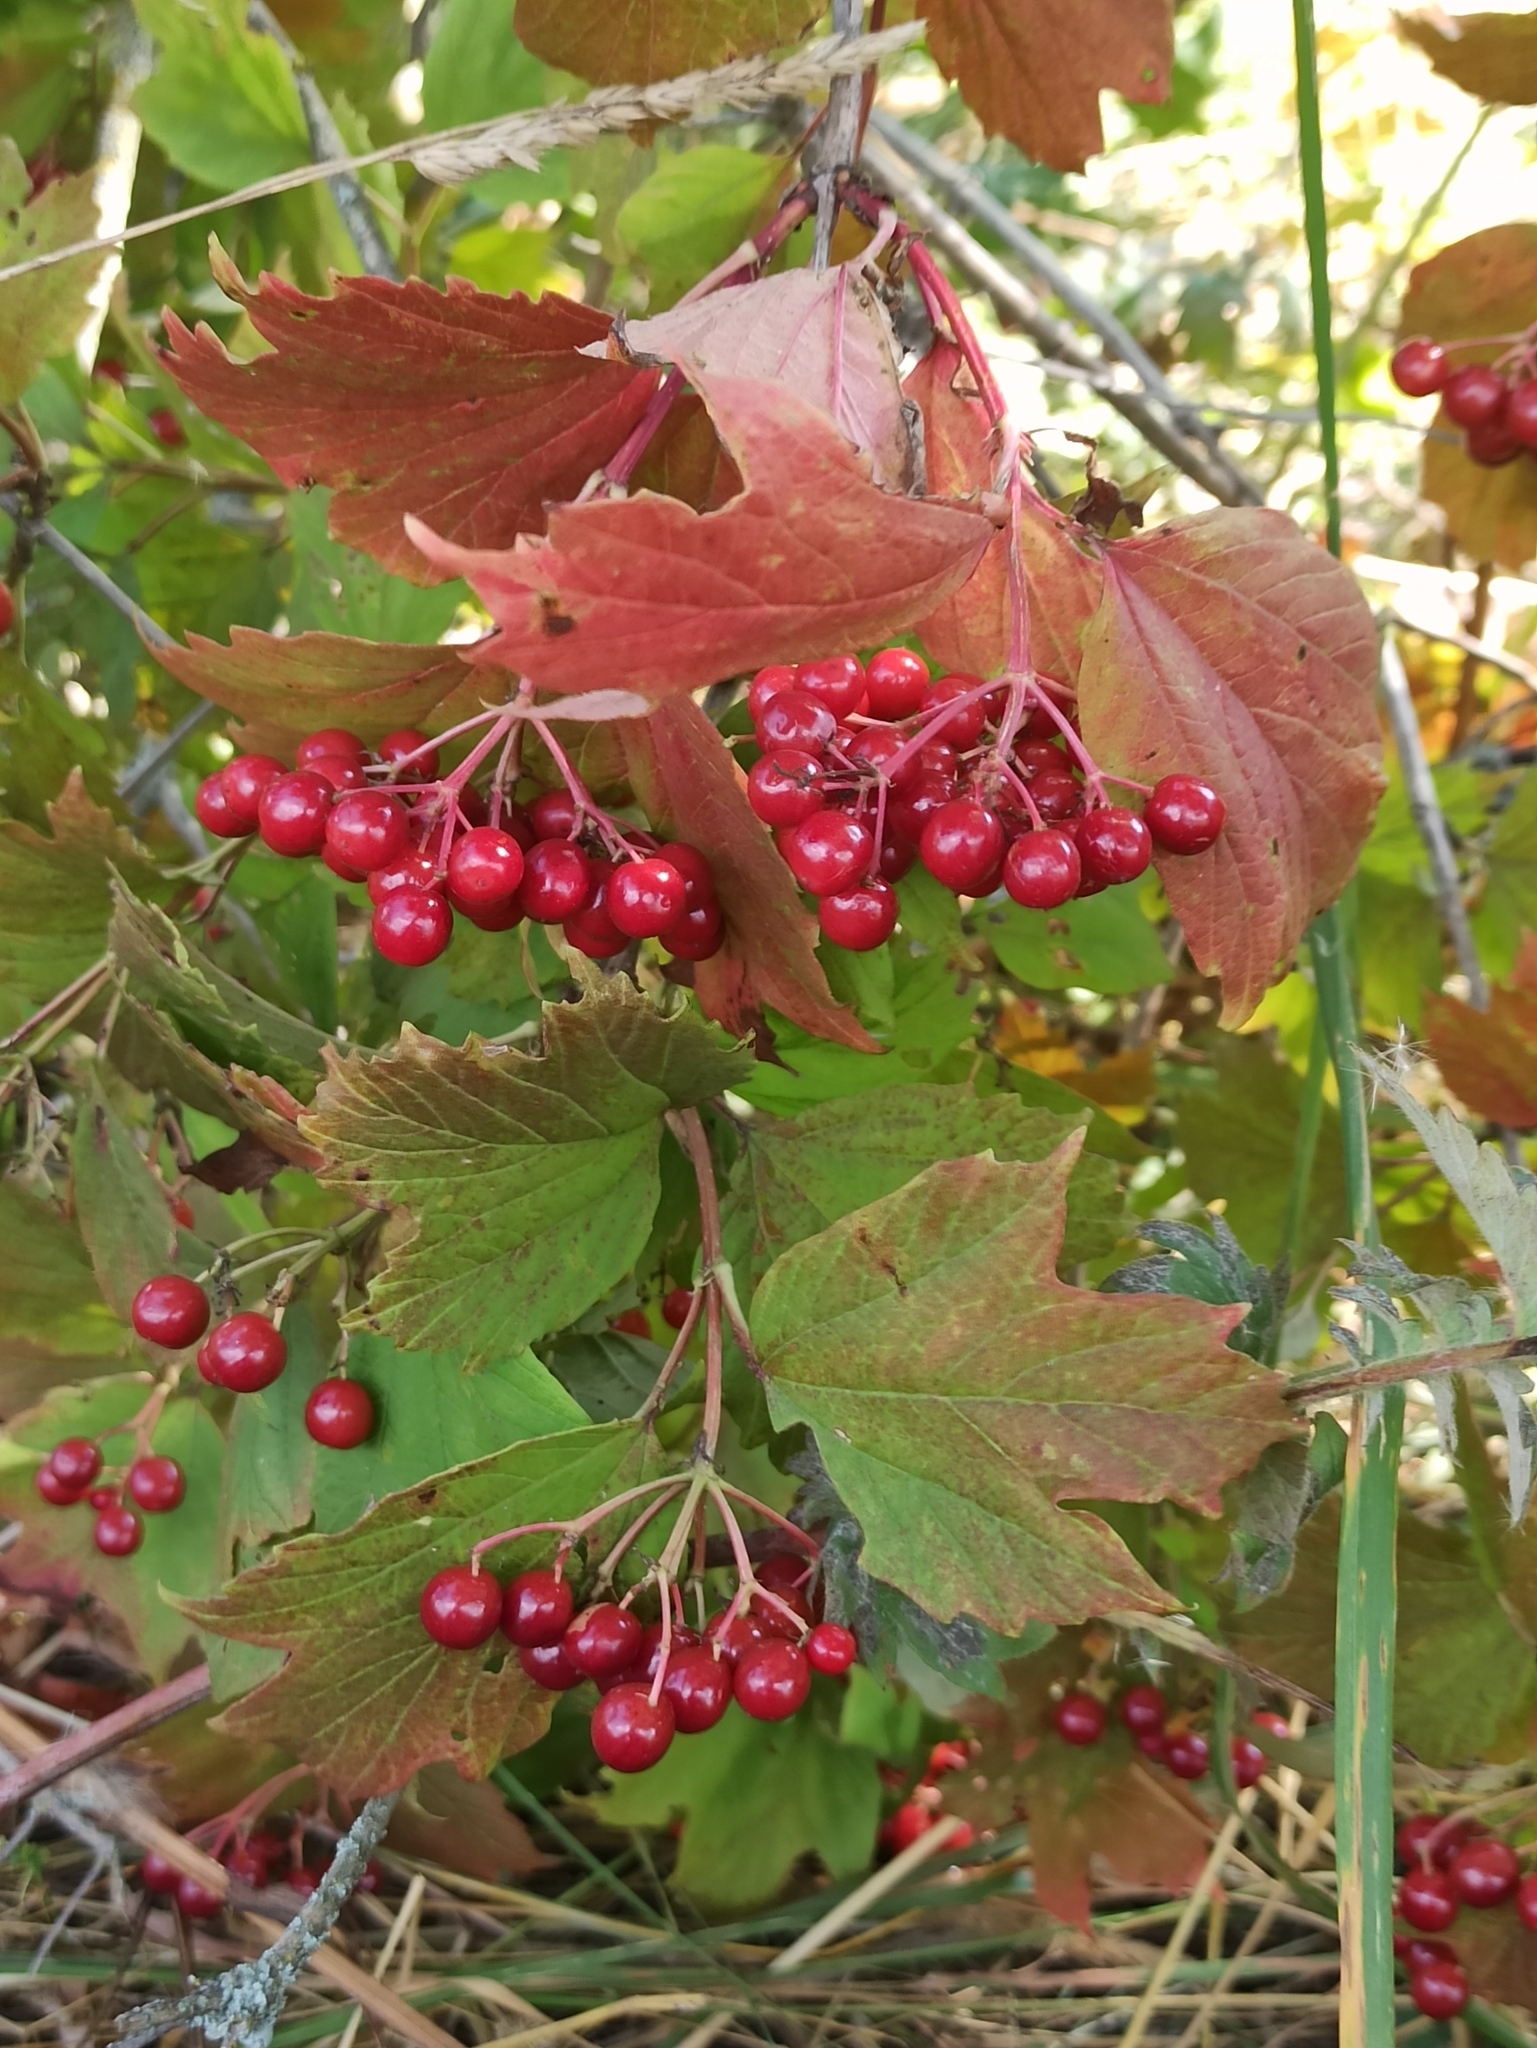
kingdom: Plantae
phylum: Tracheophyta
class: Magnoliopsida
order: Dipsacales
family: Viburnaceae
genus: Viburnum
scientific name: Viburnum opulus
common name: Guelder-rose
